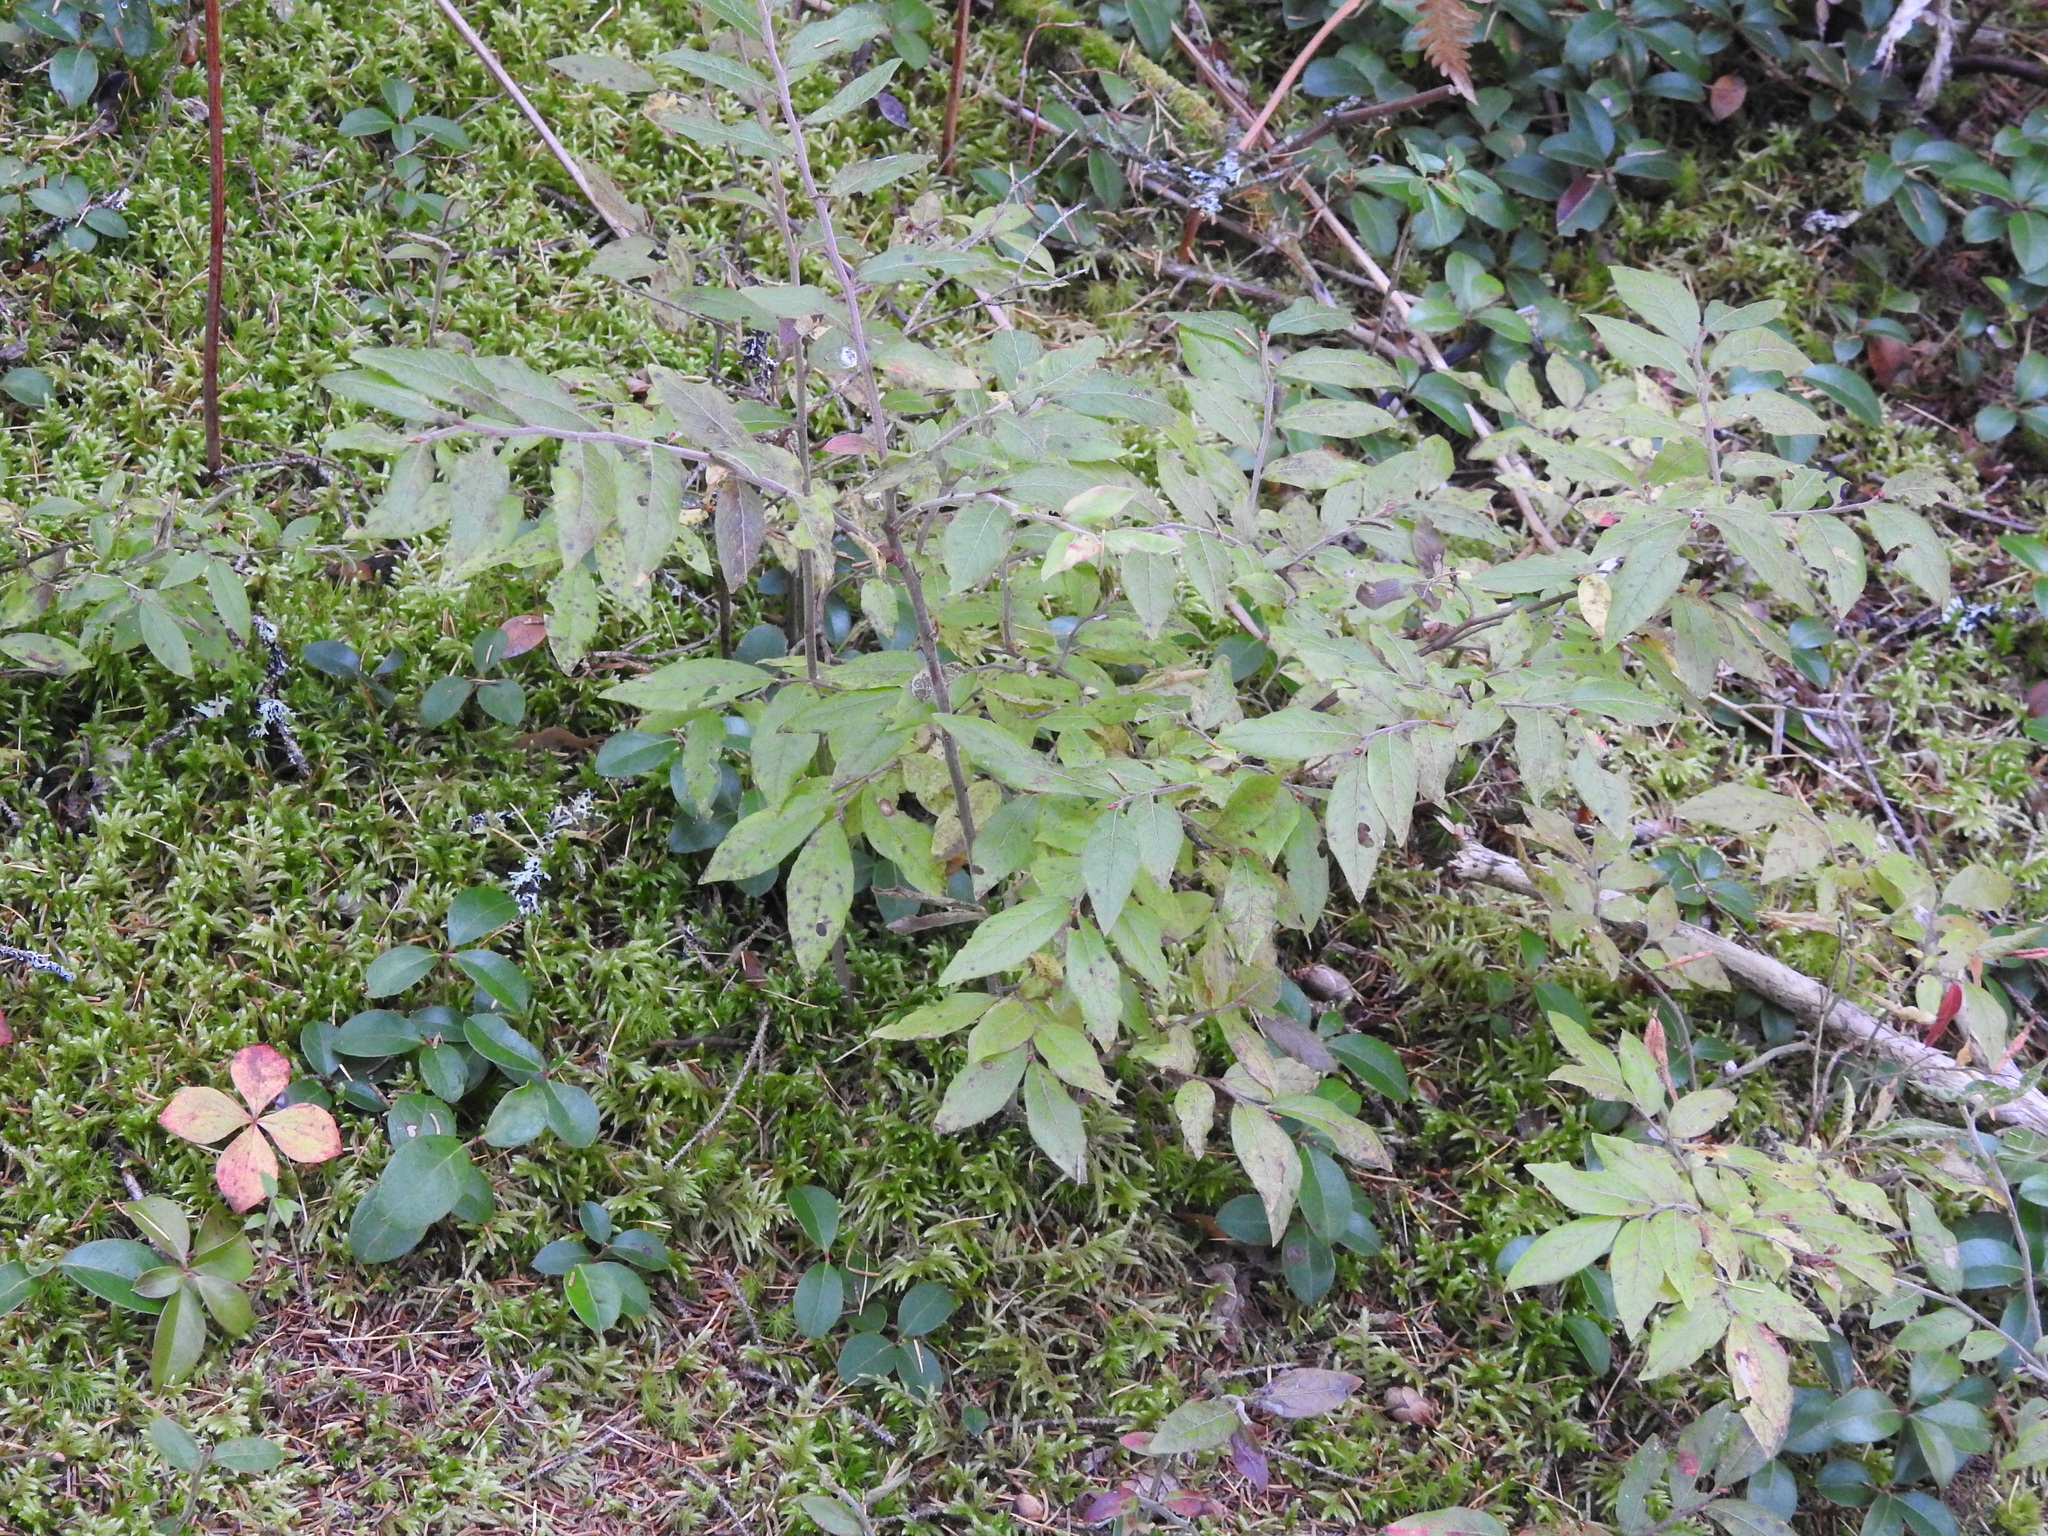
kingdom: Plantae
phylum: Tracheophyta
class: Magnoliopsida
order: Ericales
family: Ericaceae
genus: Vaccinium
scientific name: Vaccinium myrtilloides
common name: Canada blueberry
